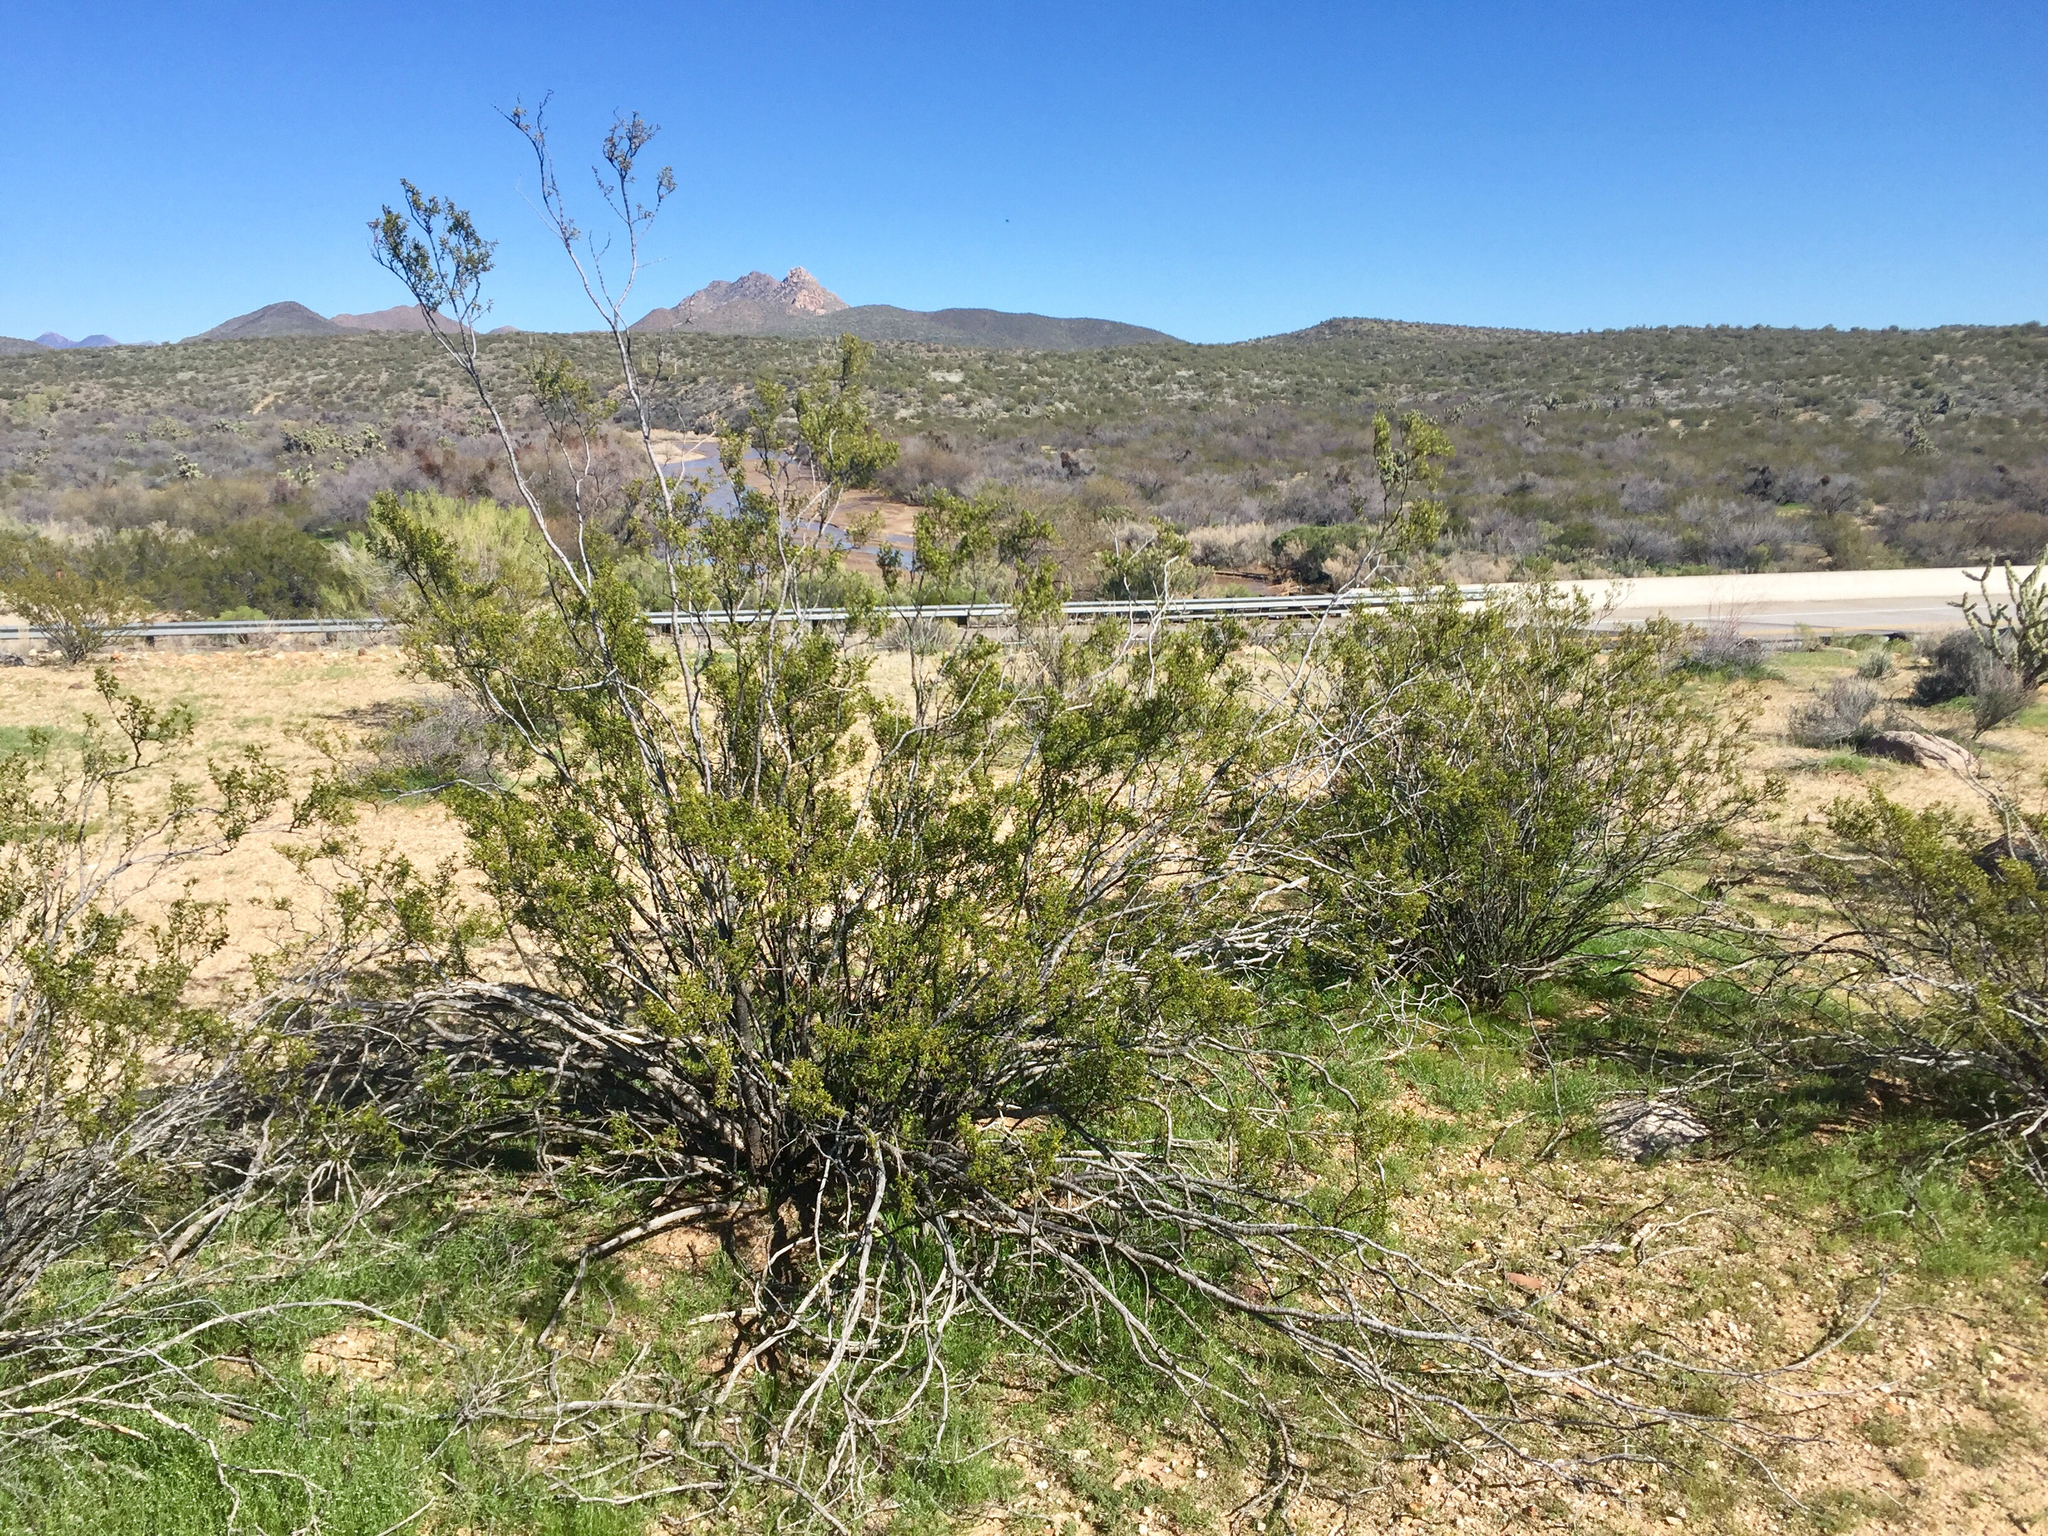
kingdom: Plantae
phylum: Tracheophyta
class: Magnoliopsida
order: Zygophyllales
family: Zygophyllaceae
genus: Larrea
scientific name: Larrea tridentata
